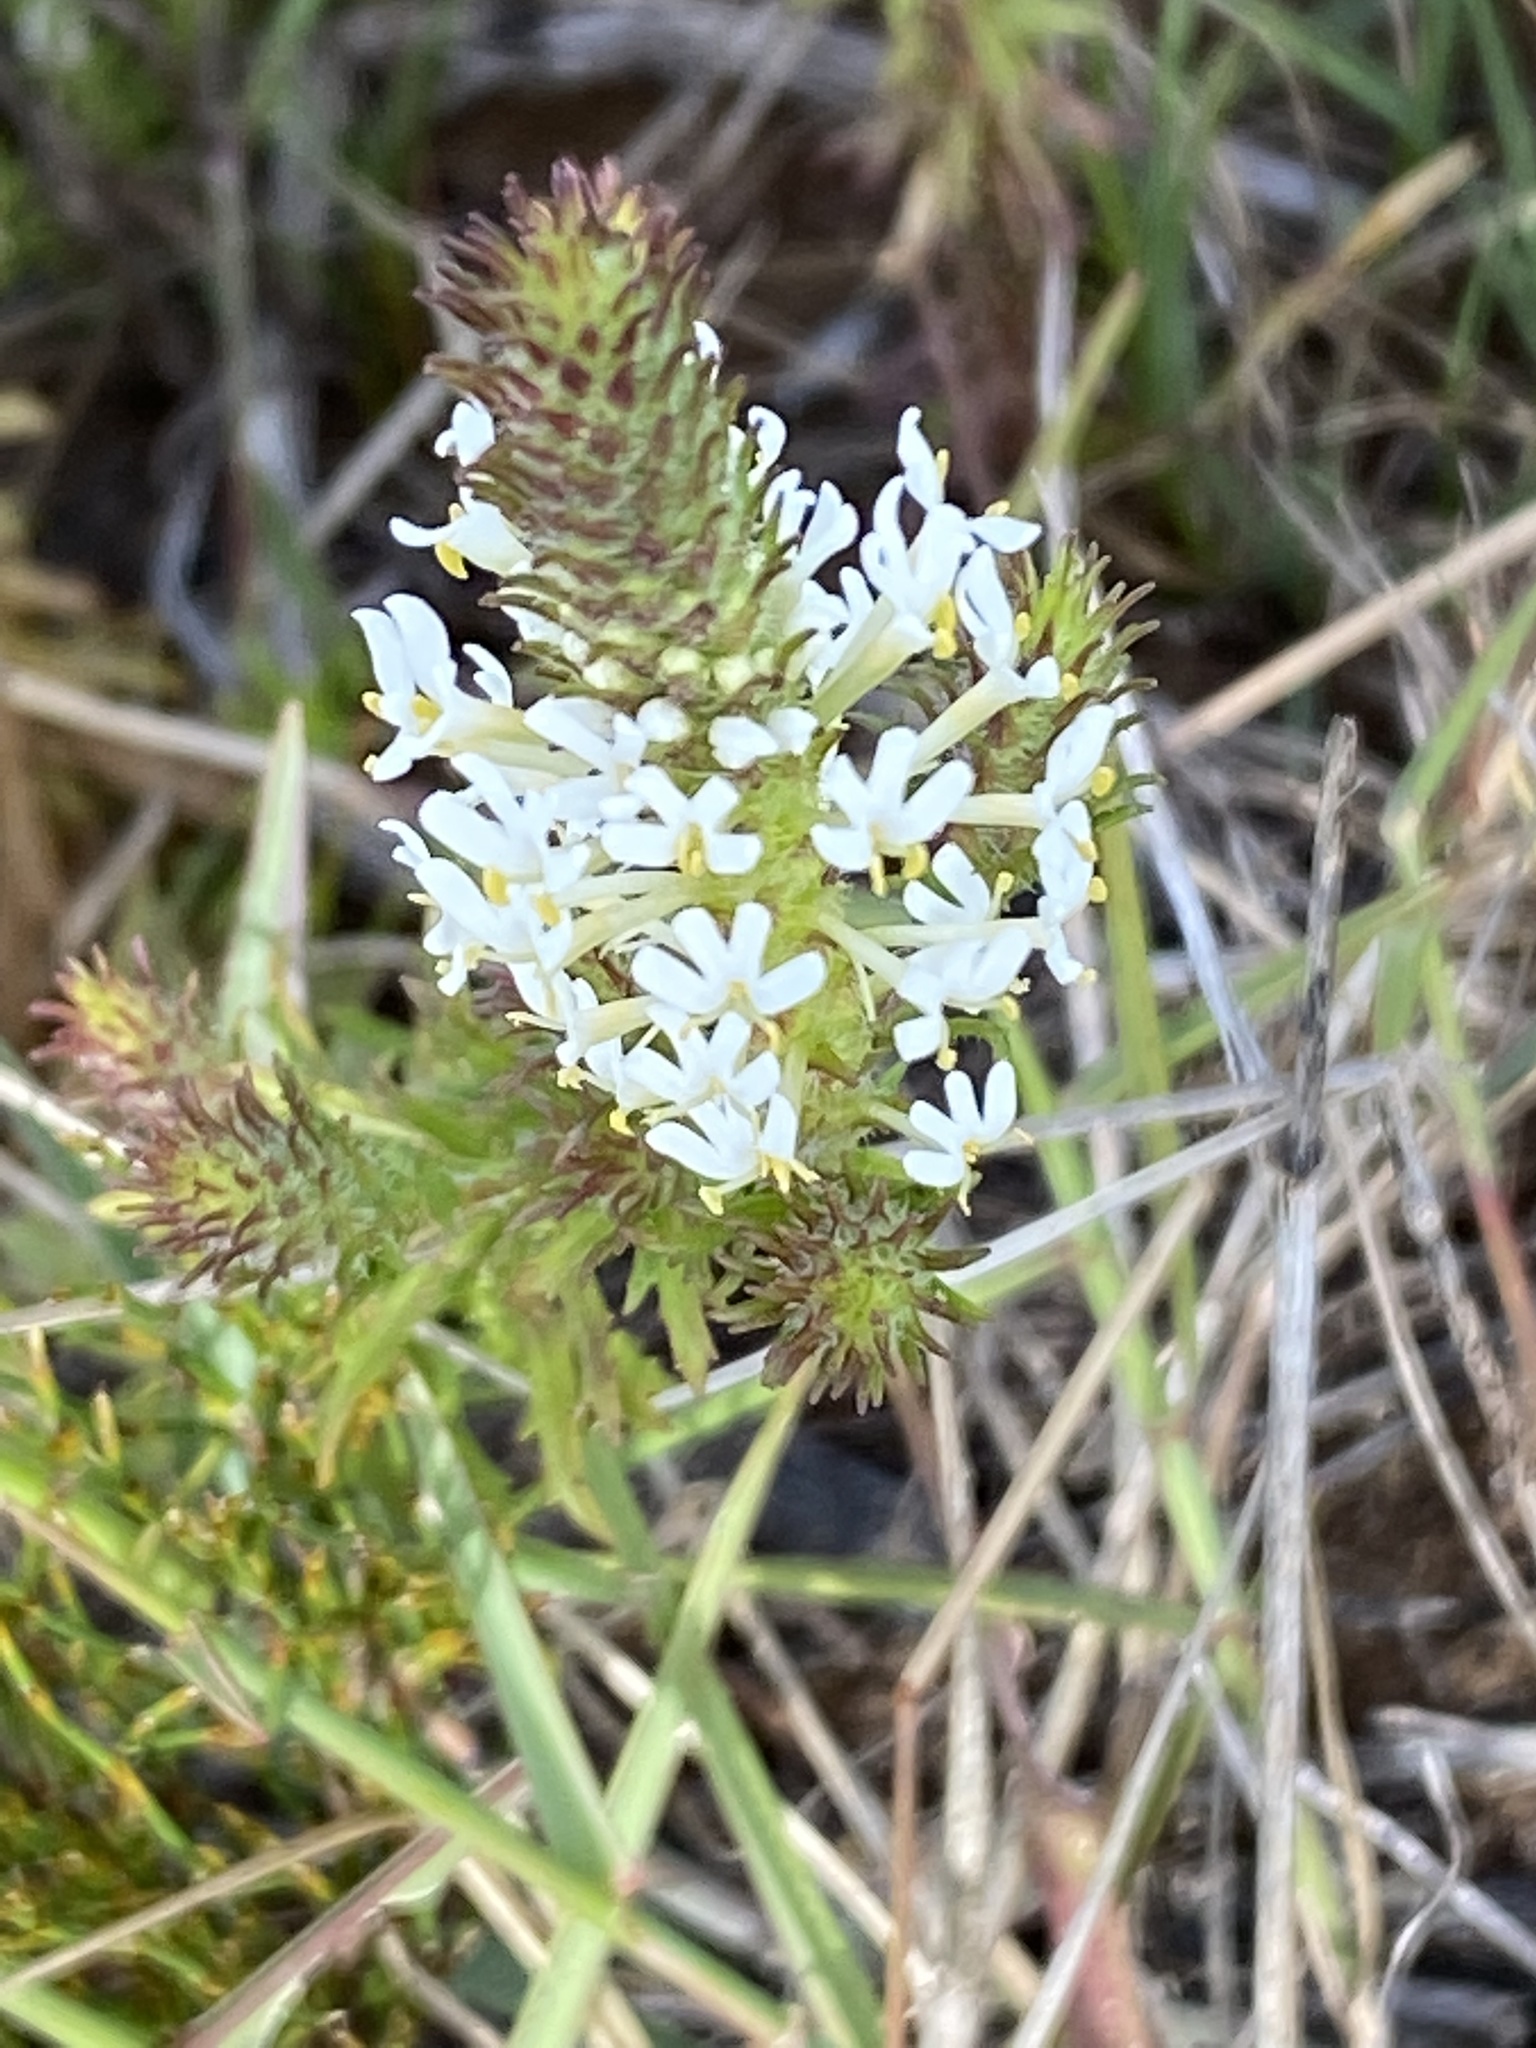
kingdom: Plantae
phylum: Tracheophyta
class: Magnoliopsida
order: Lamiales
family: Scrophulariaceae
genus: Dischisma
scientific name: Dischisma ciliatum
